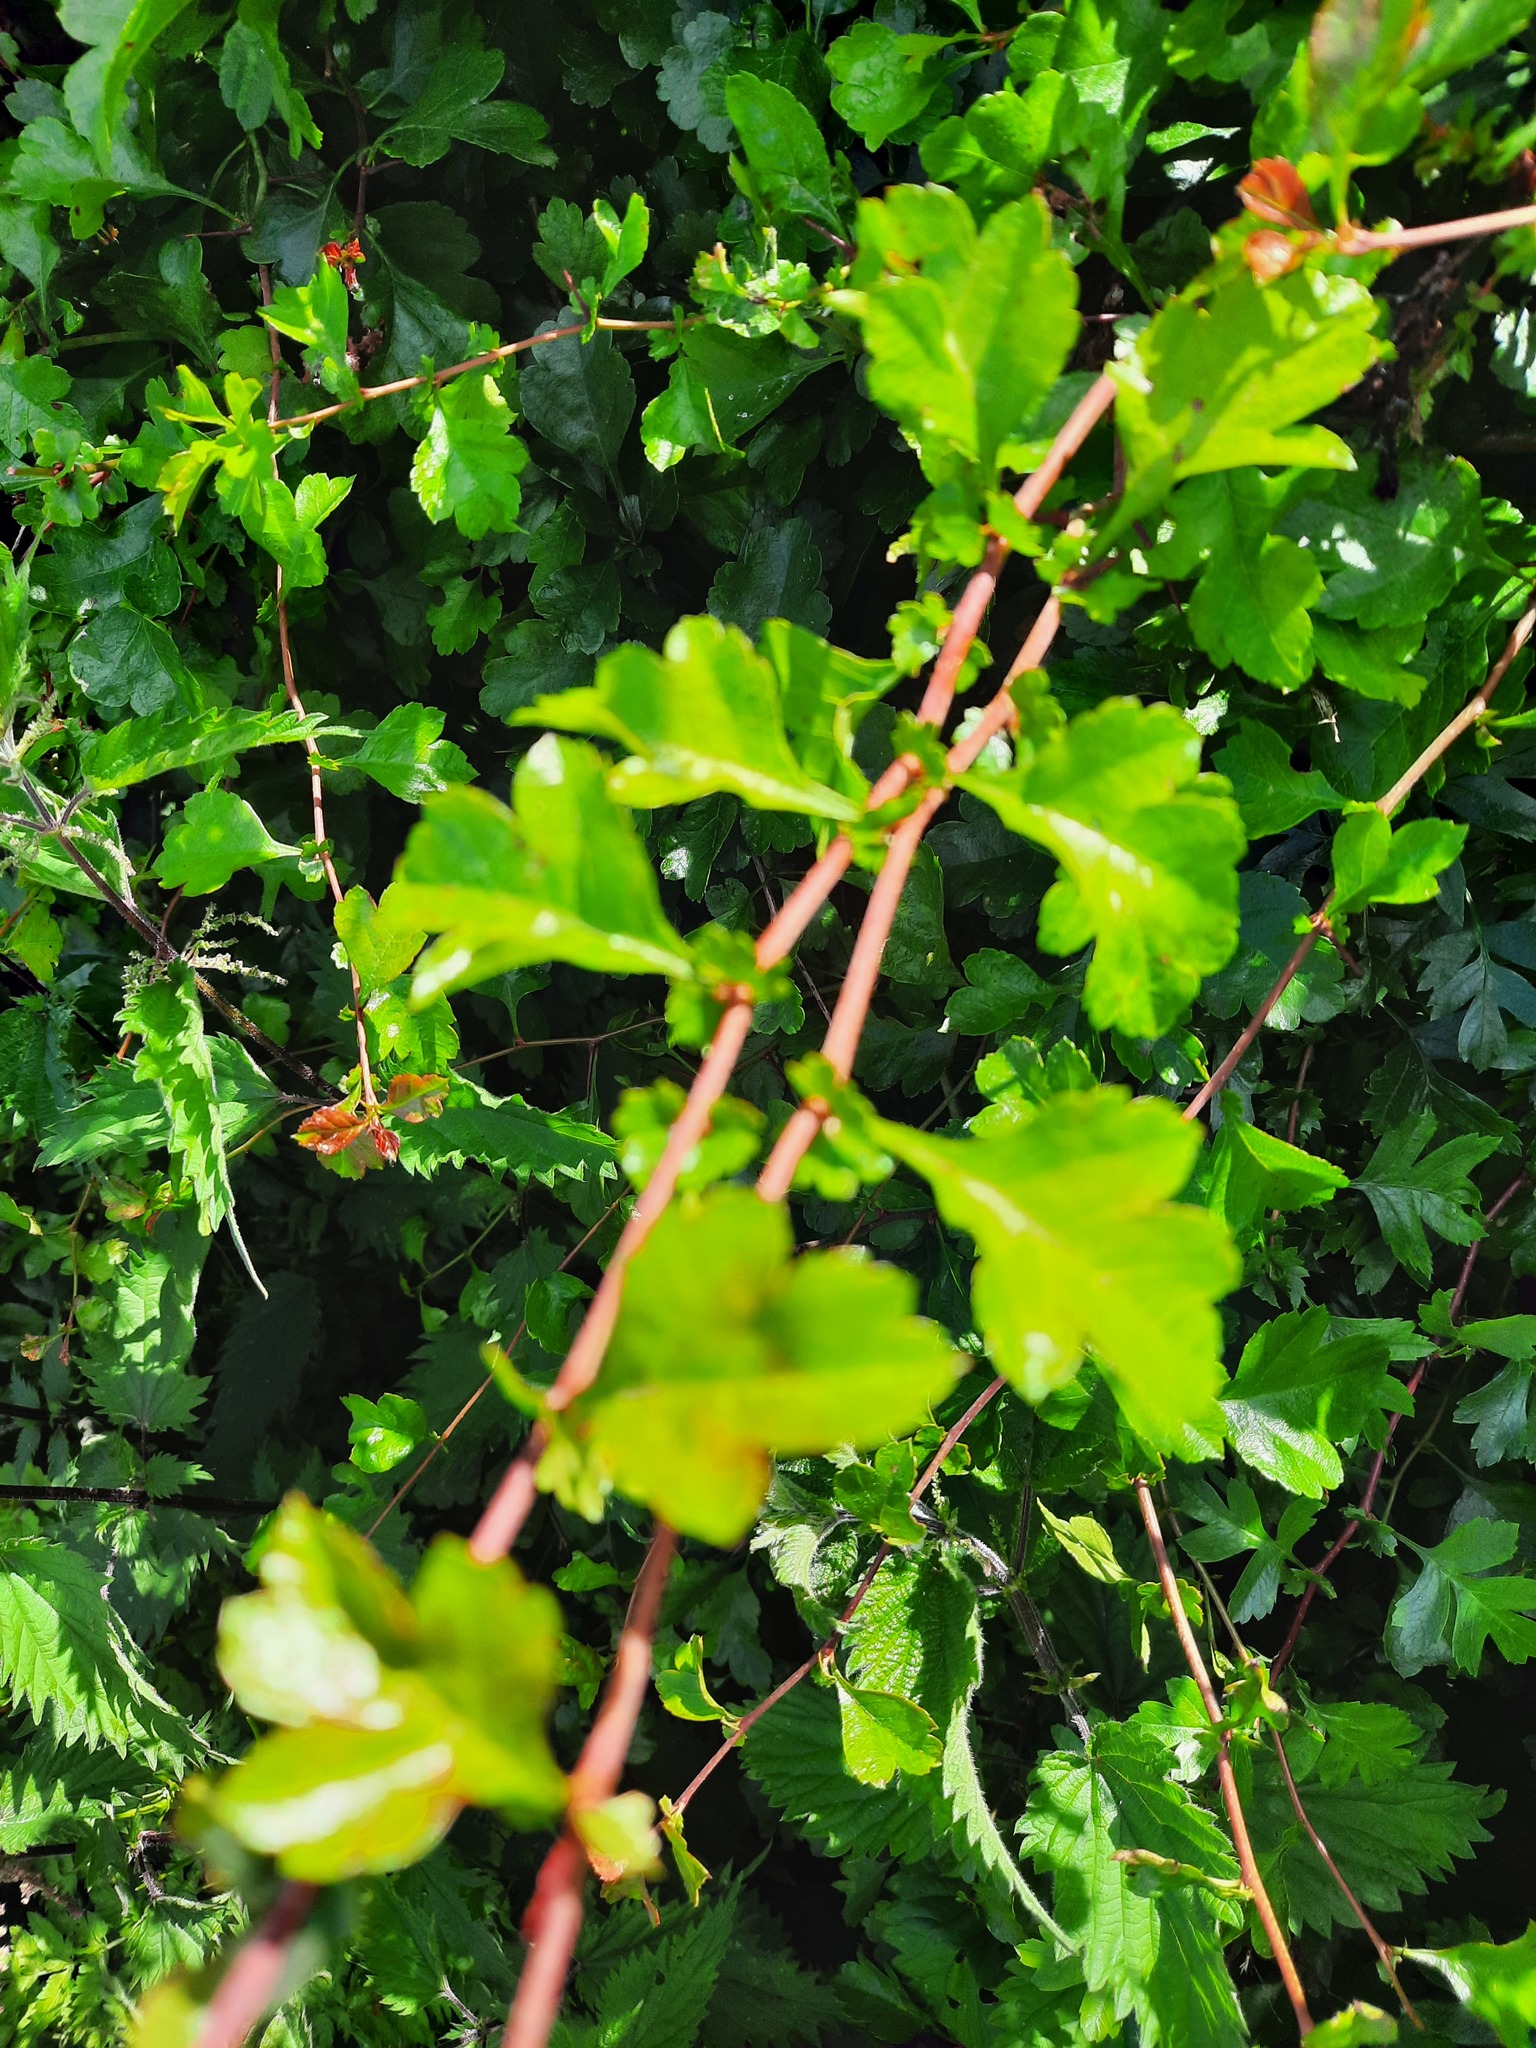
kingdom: Plantae
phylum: Tracheophyta
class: Magnoliopsida
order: Rosales
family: Rosaceae
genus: Crataegus
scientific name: Crataegus monogyna
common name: Hawthorn
